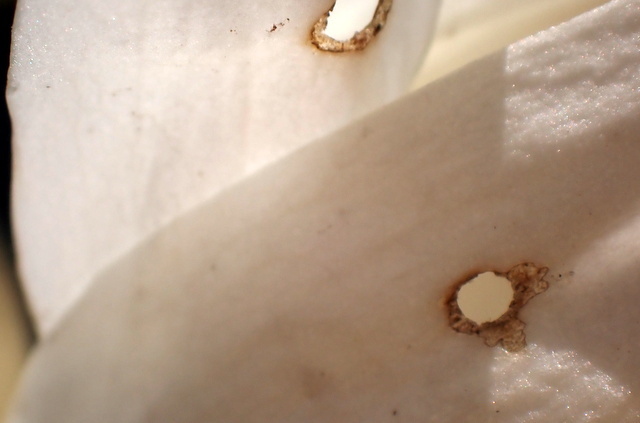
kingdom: Animalia
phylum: Arthropoda
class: Insecta
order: Lepidoptera
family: Crambidae
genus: Elophila
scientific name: Elophila gyralis
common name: Waterlily borer moth
